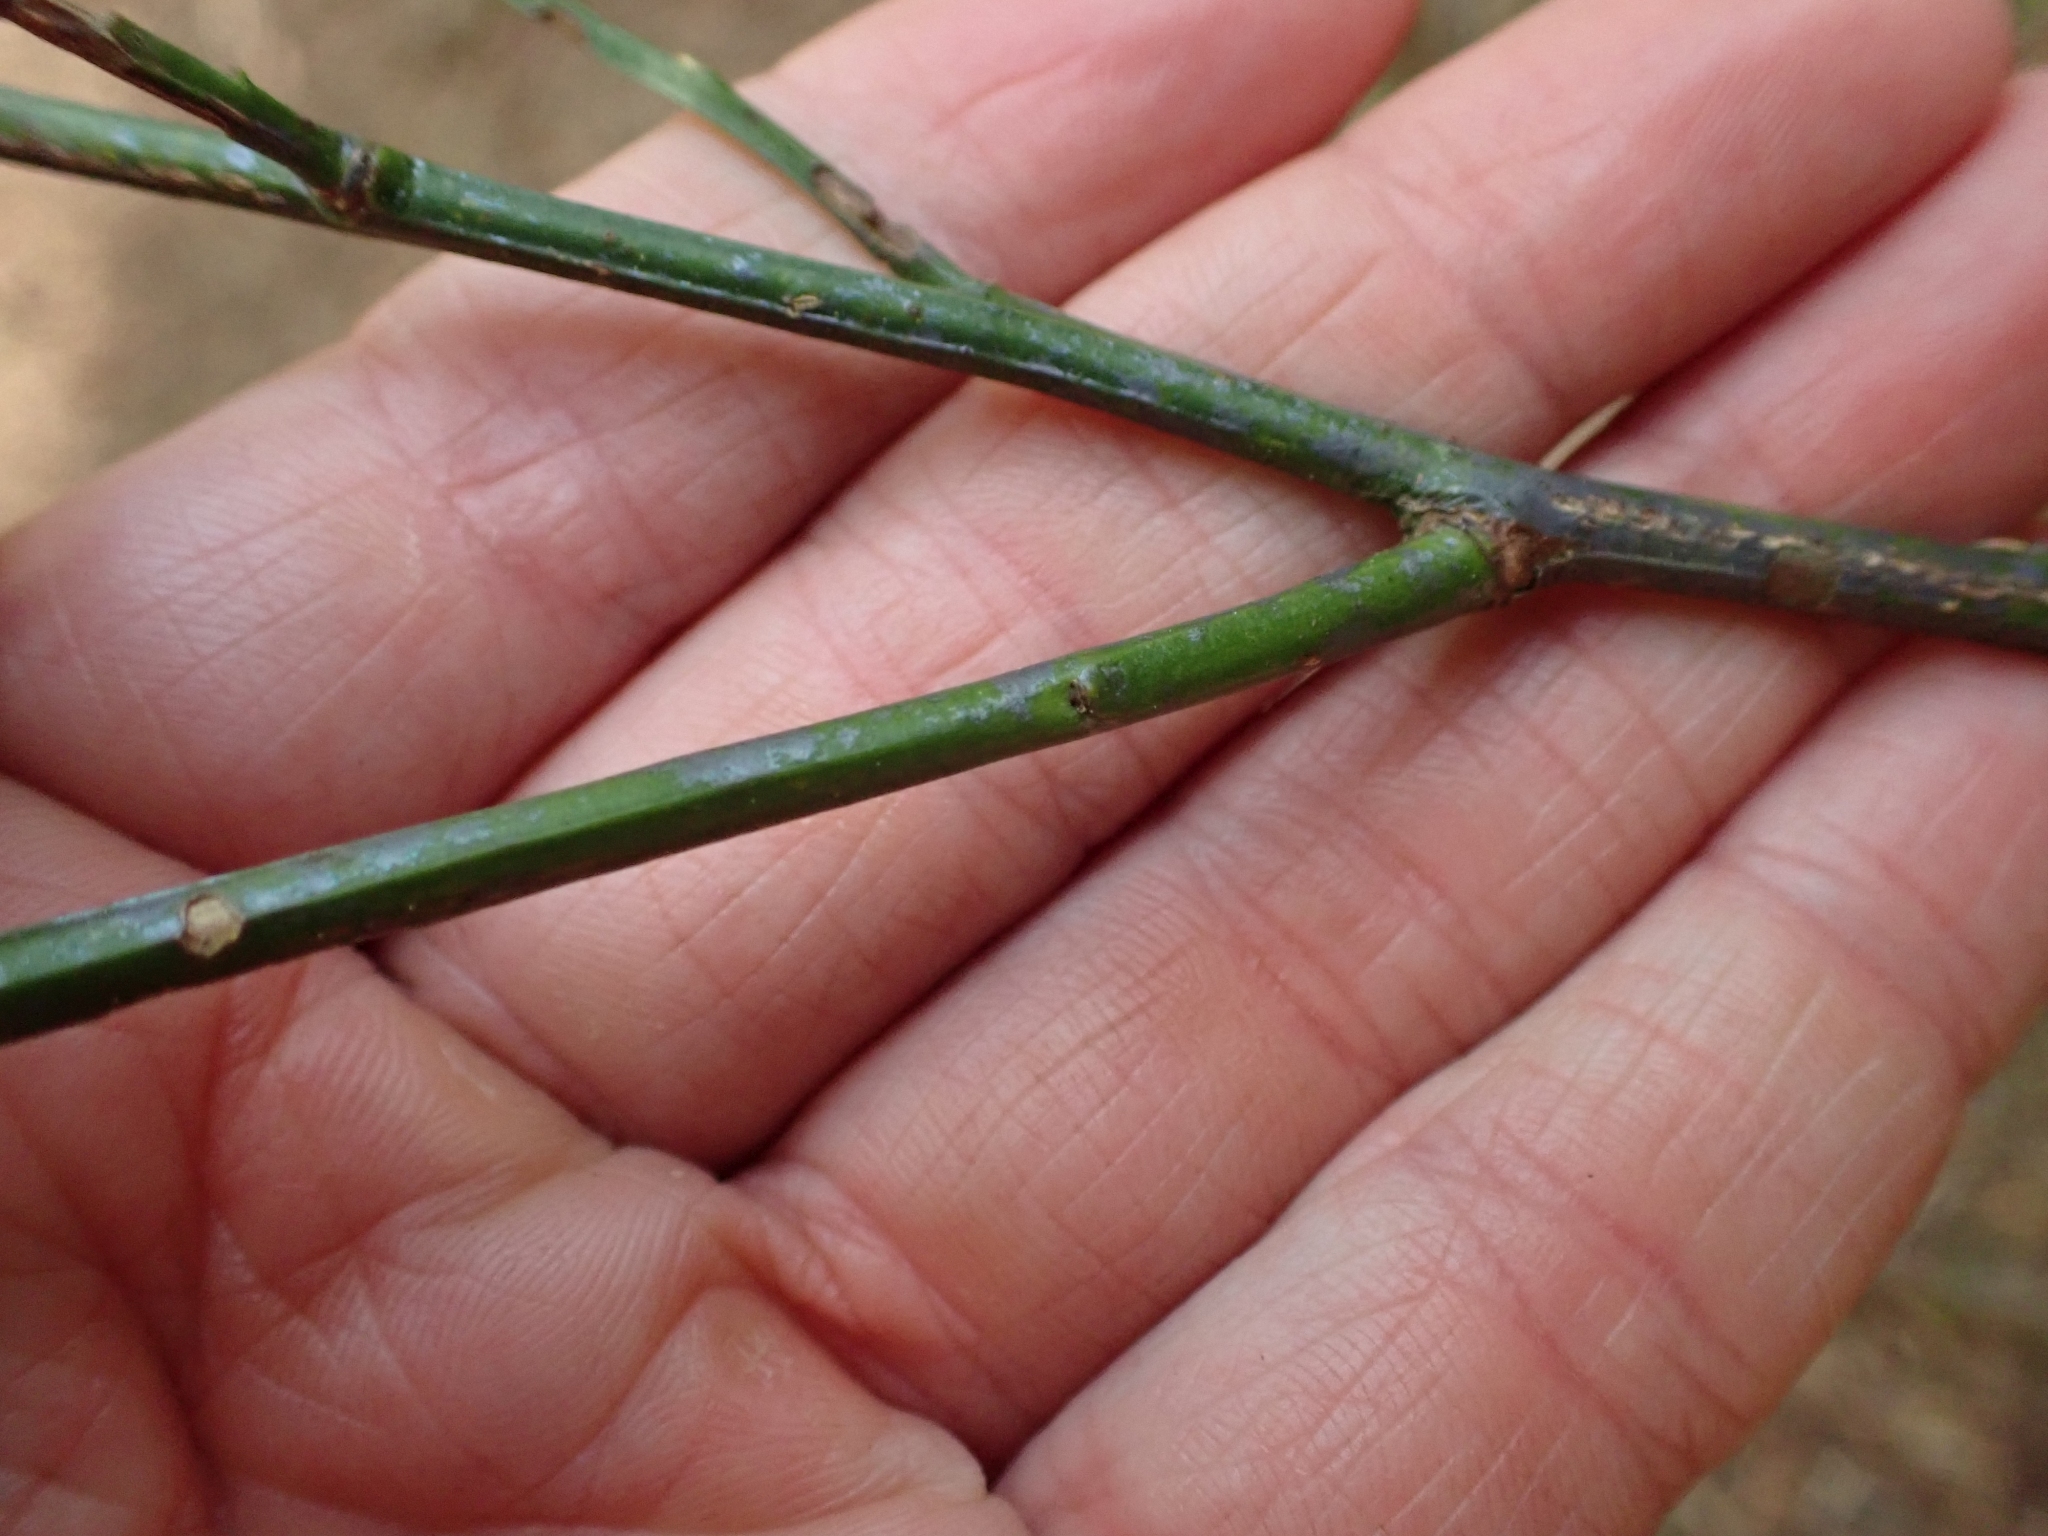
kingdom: Plantae
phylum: Tracheophyta
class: Magnoliopsida
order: Ericales
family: Ericaceae
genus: Vaccinium
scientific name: Vaccinium parvifolium
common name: Red-huckleberry
